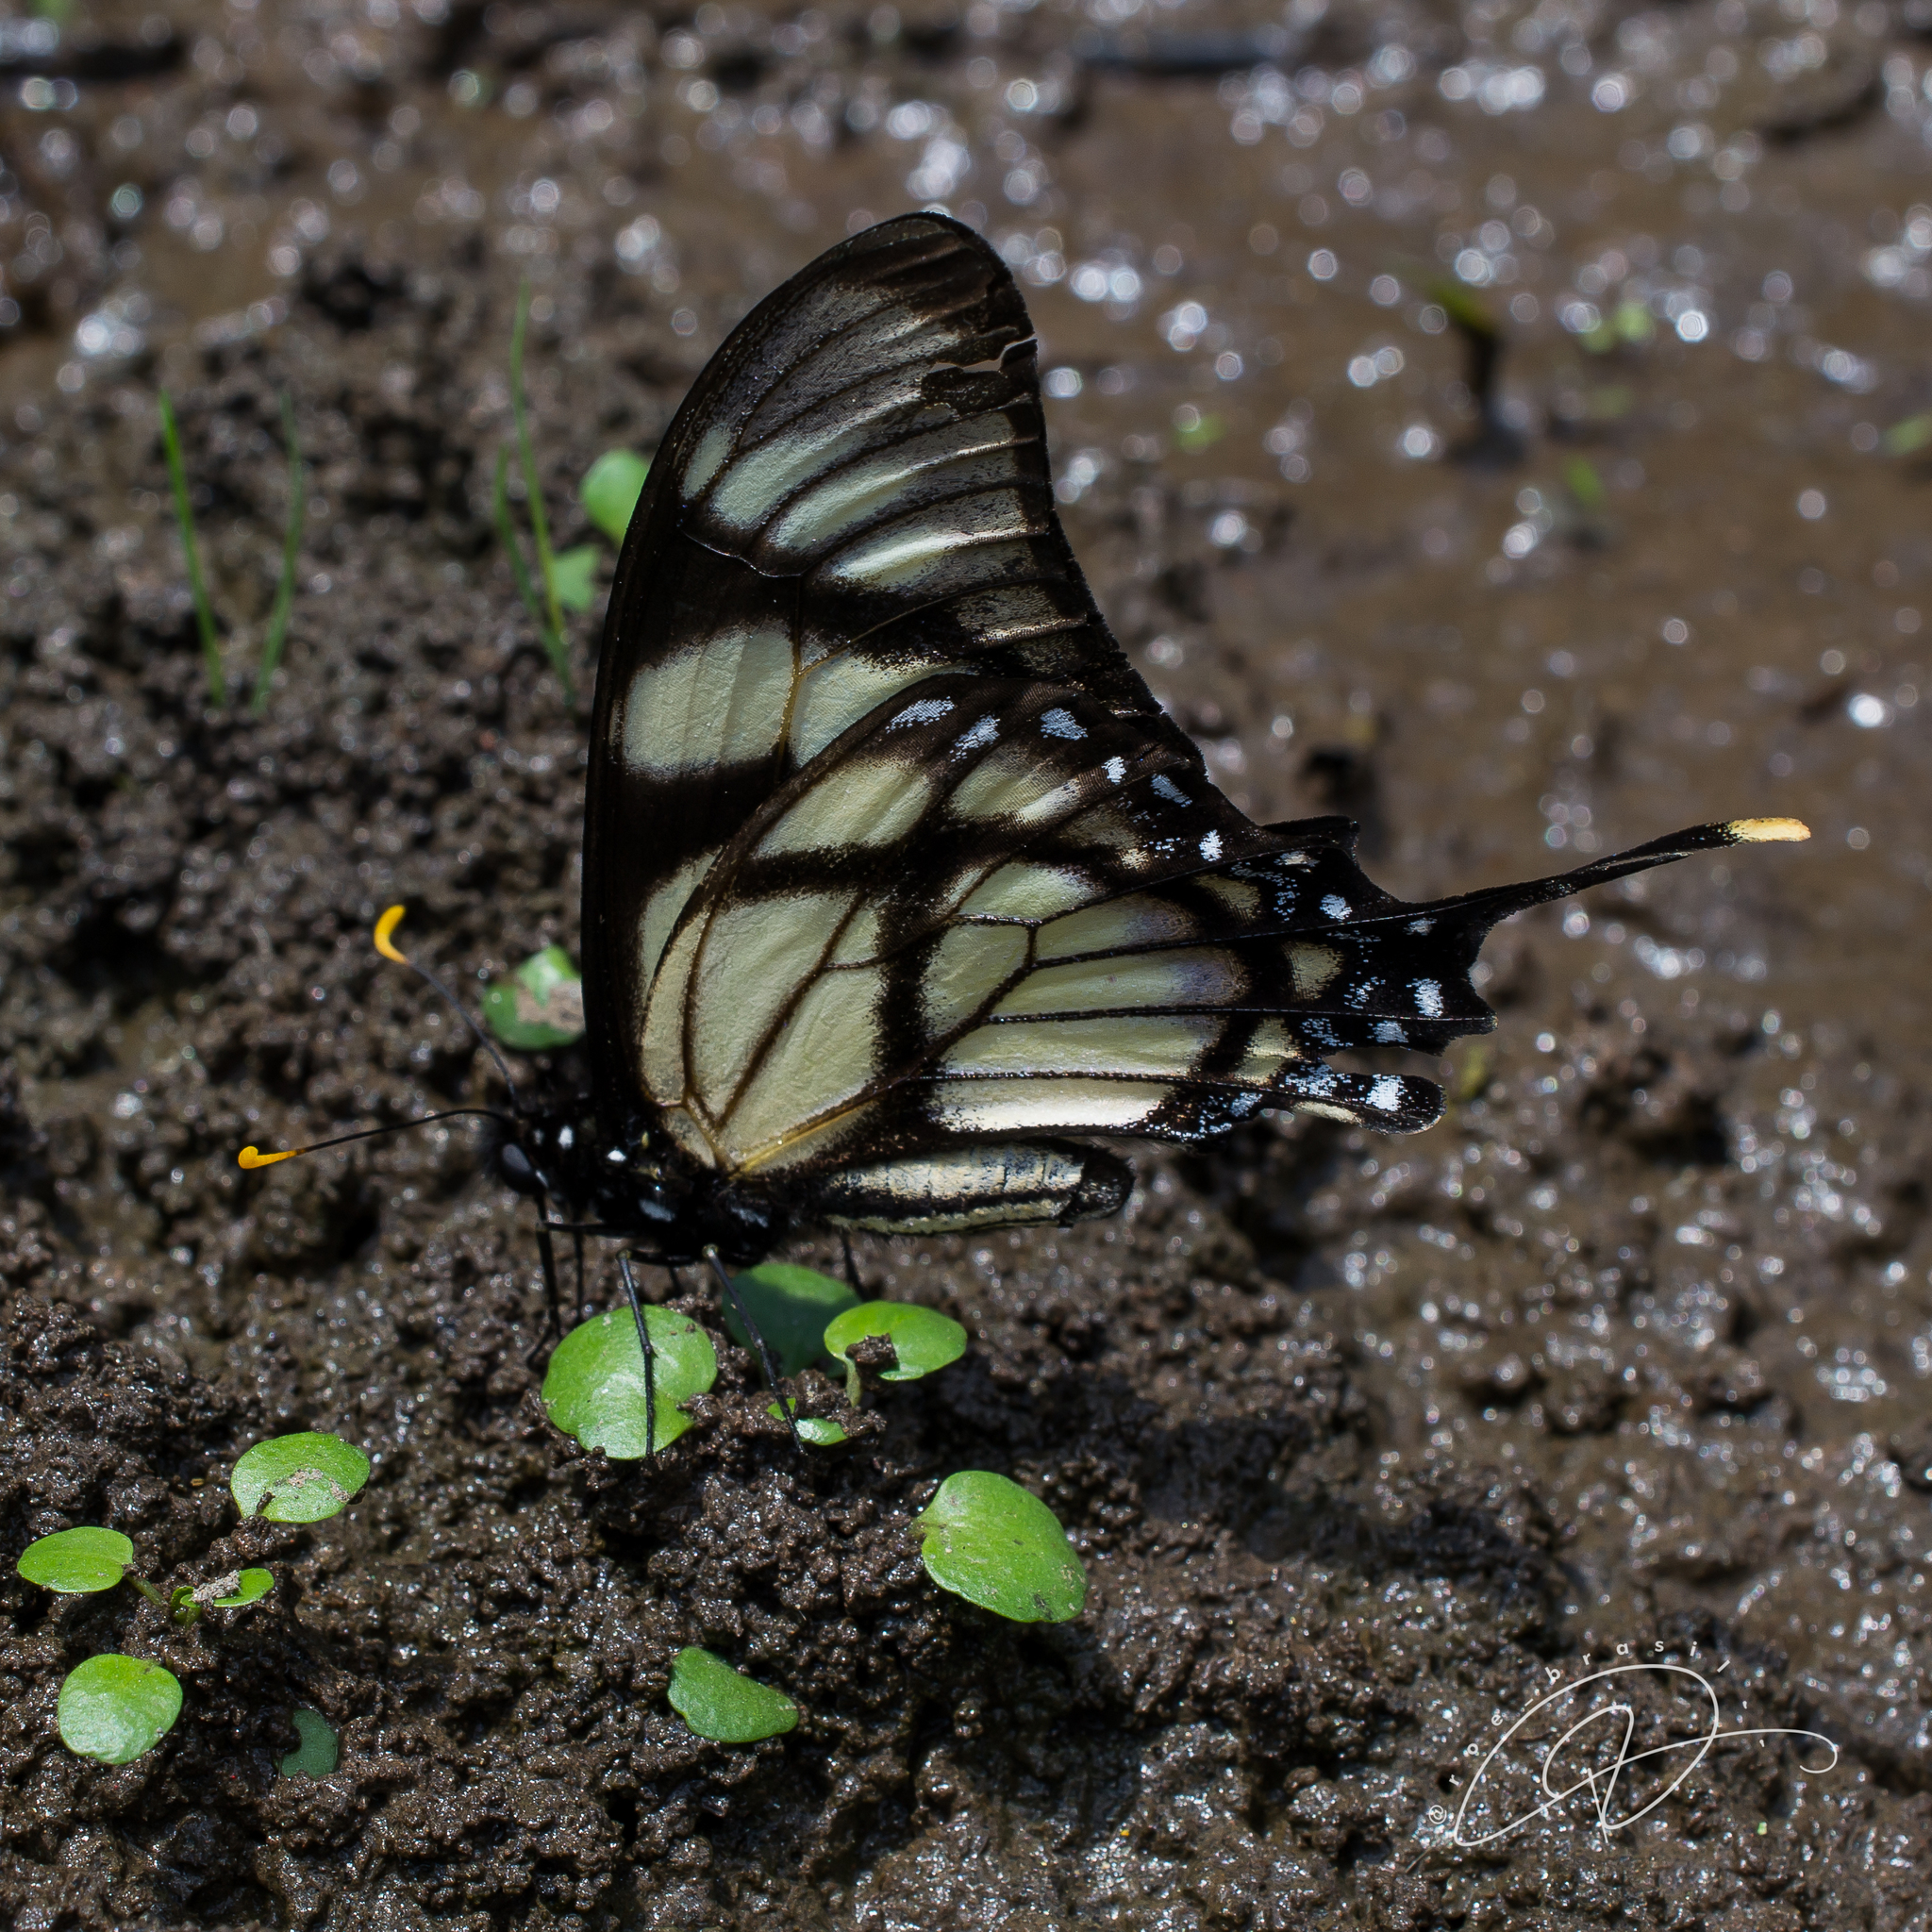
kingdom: Animalia
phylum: Arthropoda
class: Insecta
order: Lepidoptera
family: Papilionidae
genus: Eurytides
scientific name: Eurytides dolicaon
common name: Dolicaon kite swallowtail
